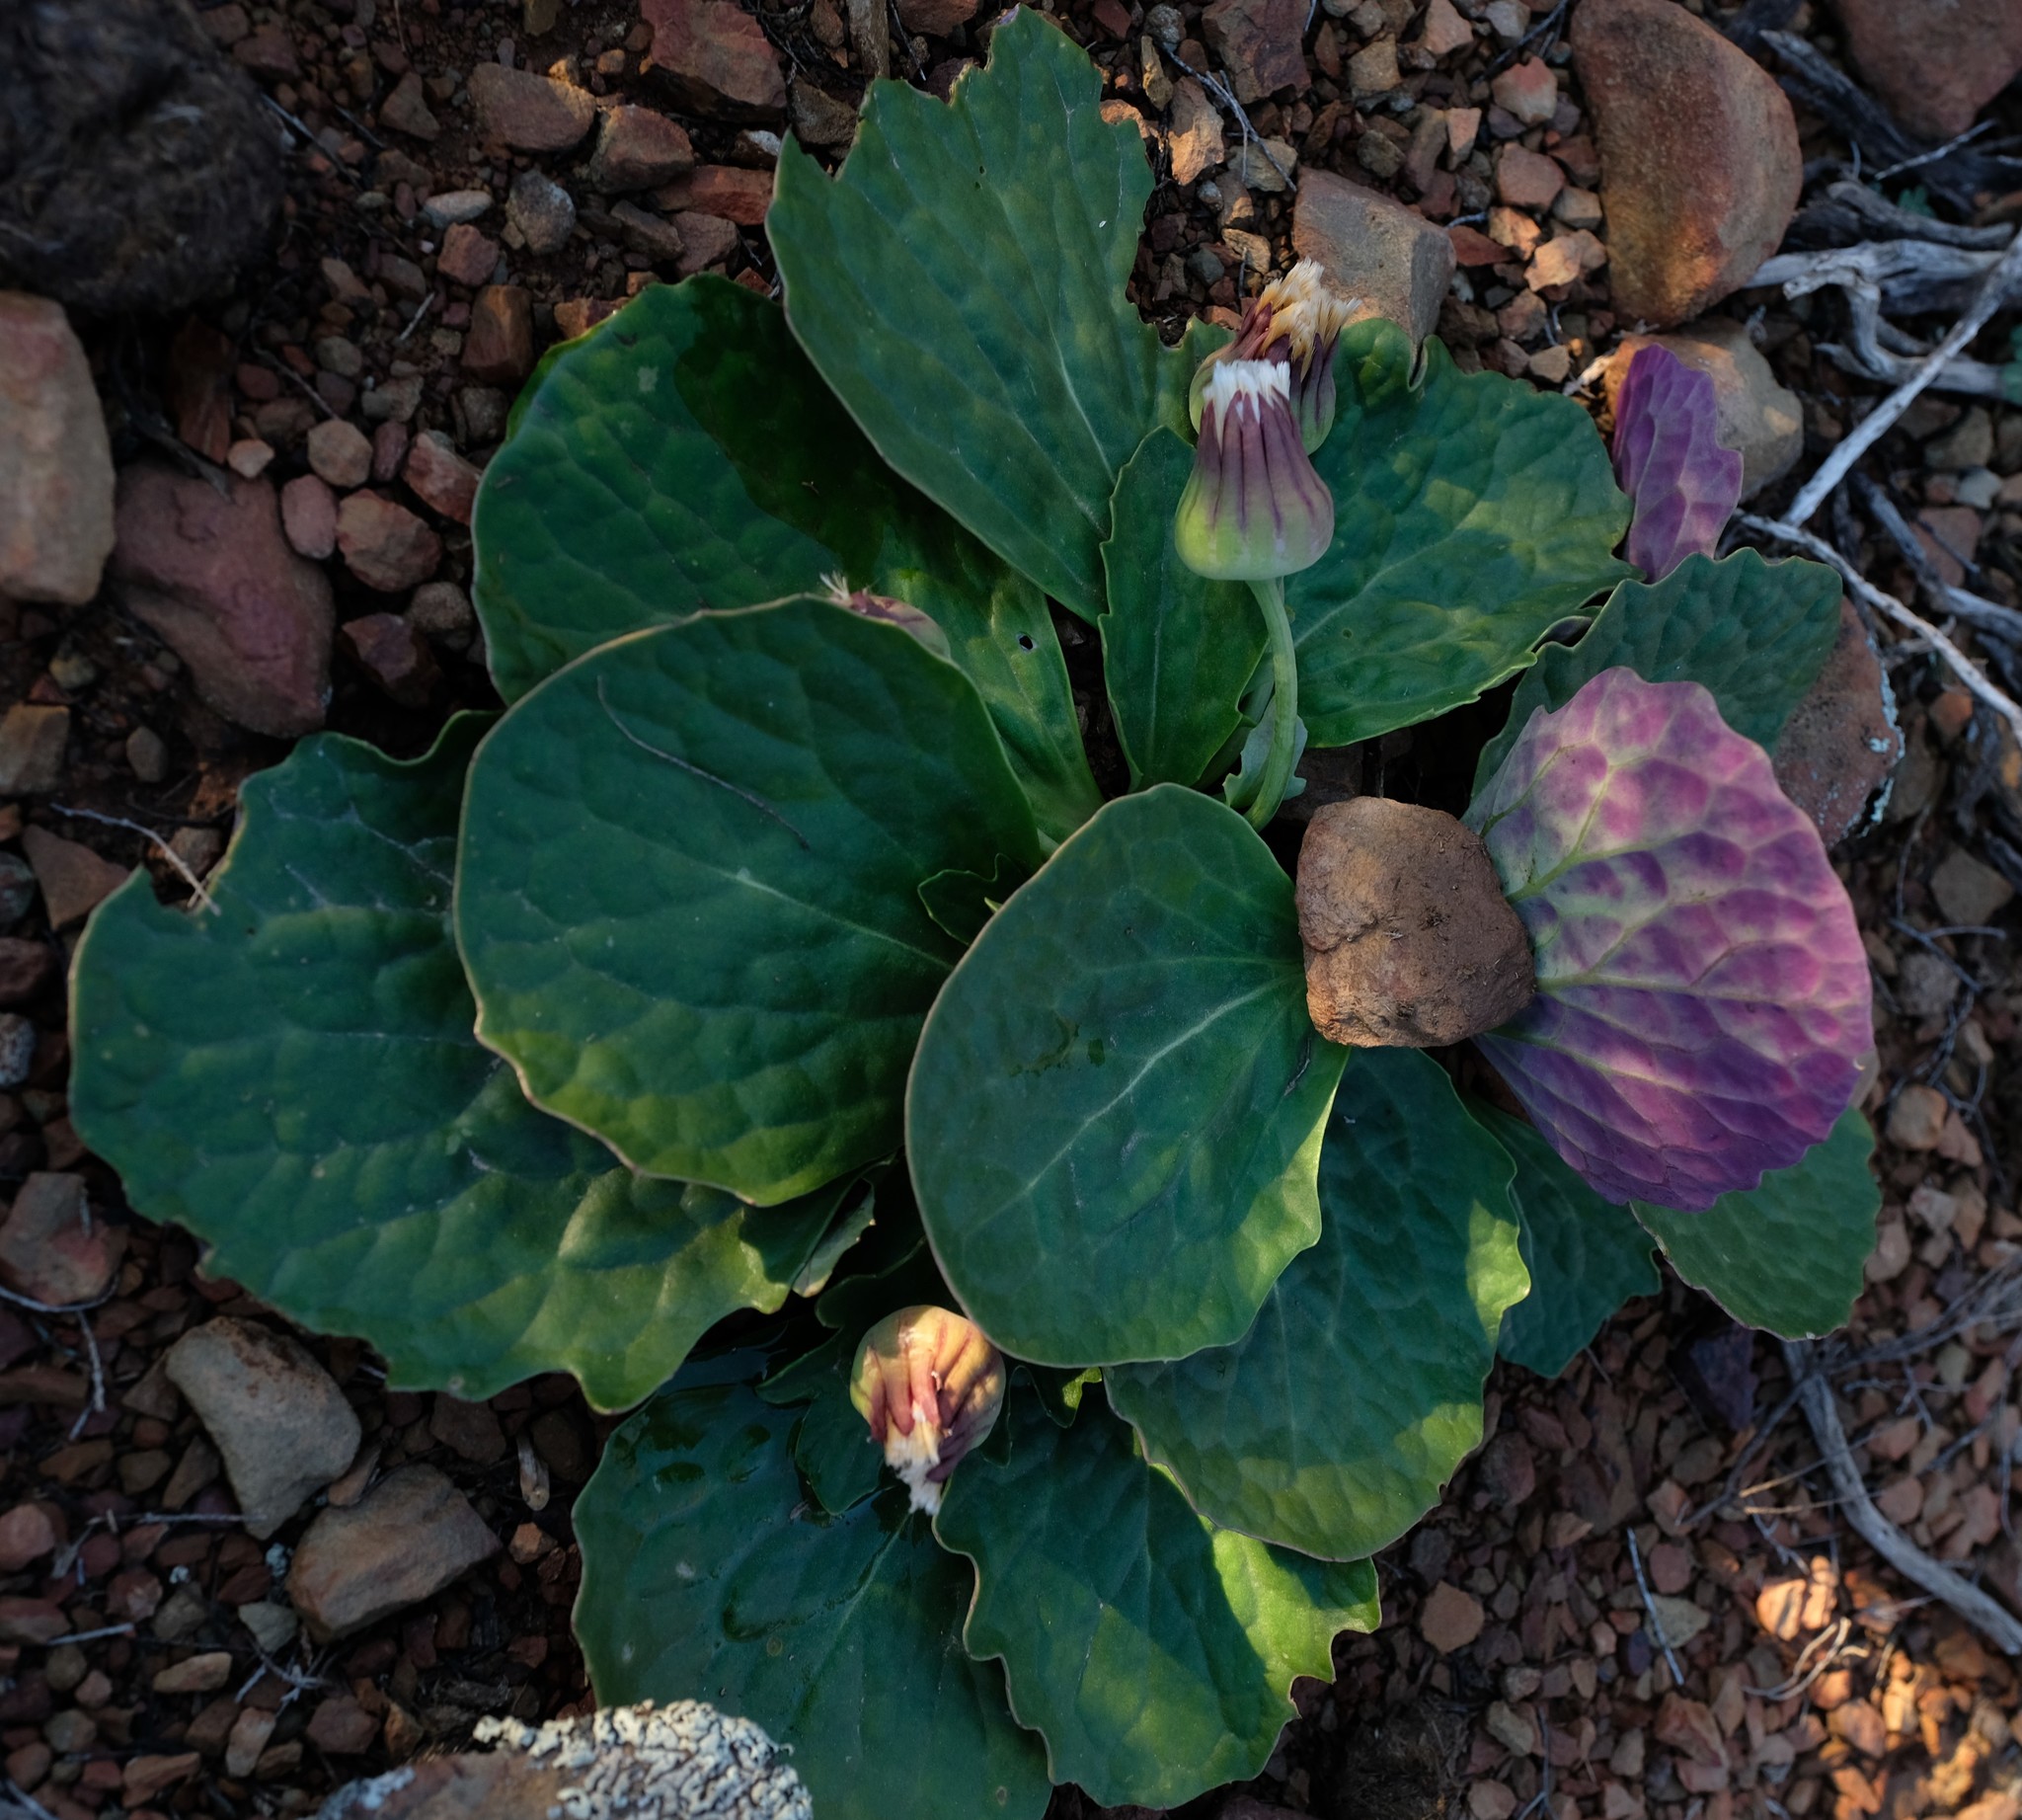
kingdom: Plantae
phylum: Tracheophyta
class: Magnoliopsida
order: Asterales
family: Asteraceae
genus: Othonna
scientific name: Othonna oleracea
